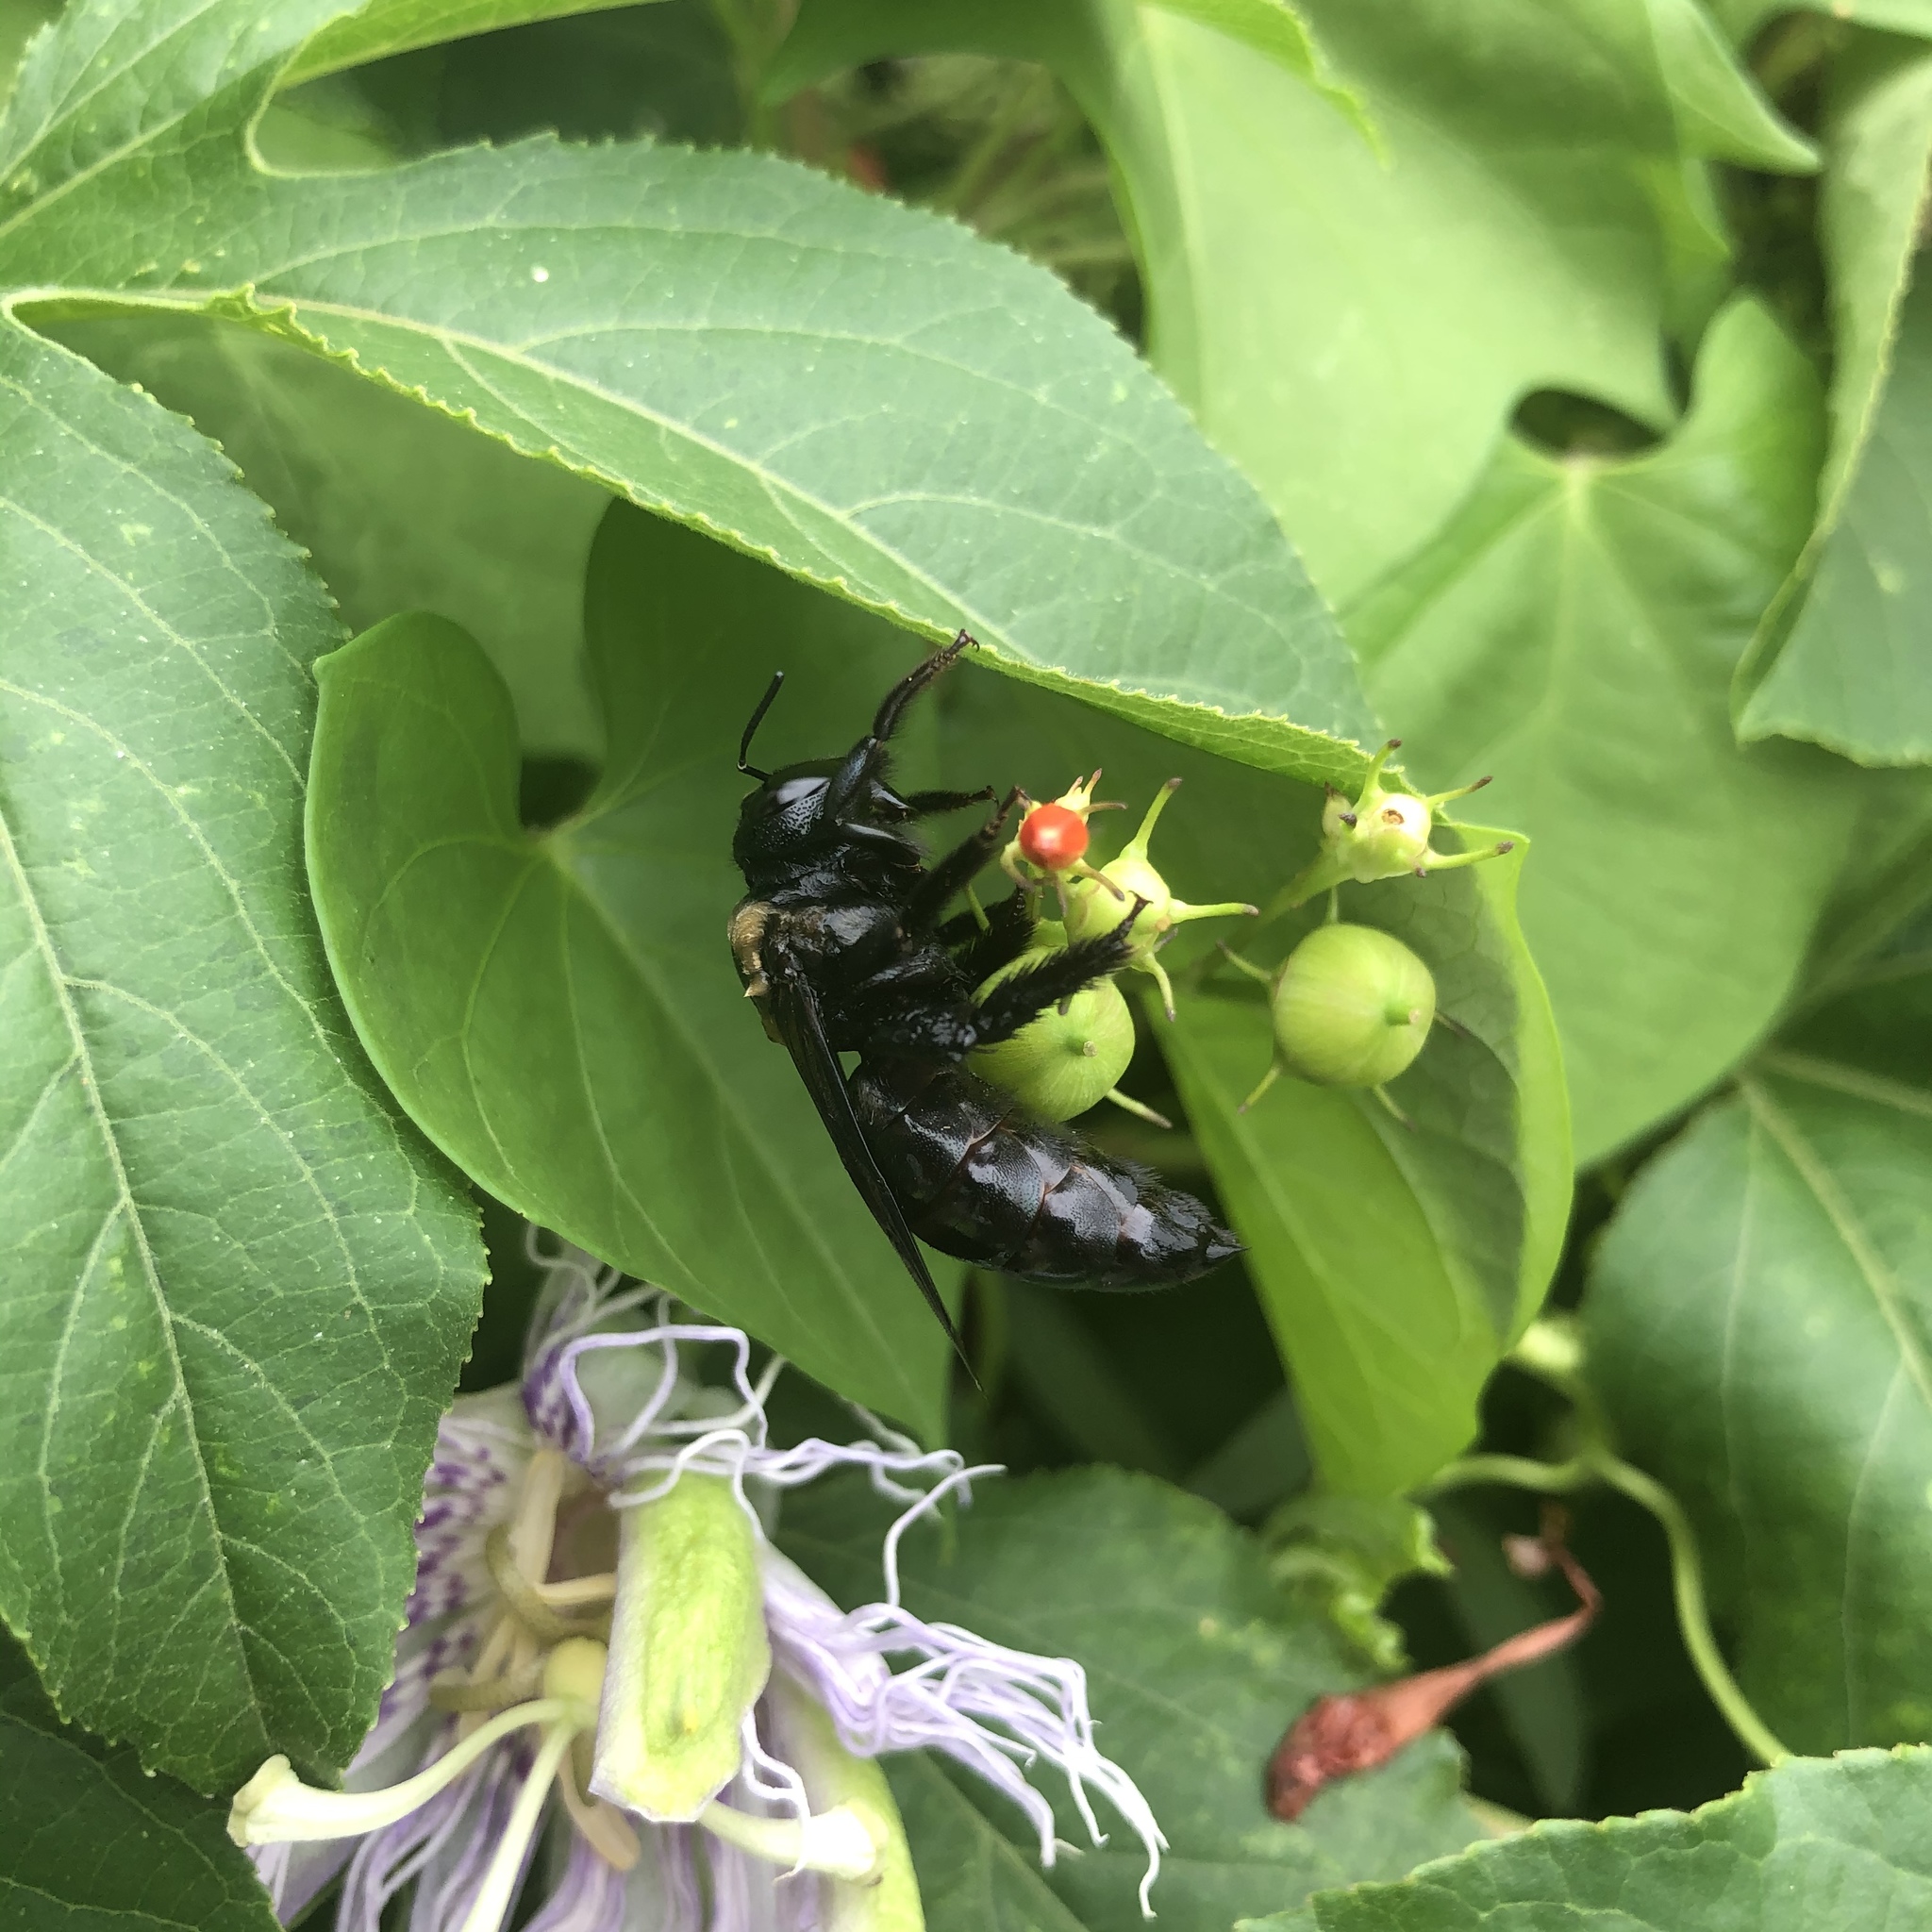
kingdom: Animalia
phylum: Arthropoda
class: Insecta
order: Hymenoptera
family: Apidae
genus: Xylocopa
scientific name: Xylocopa strandi
